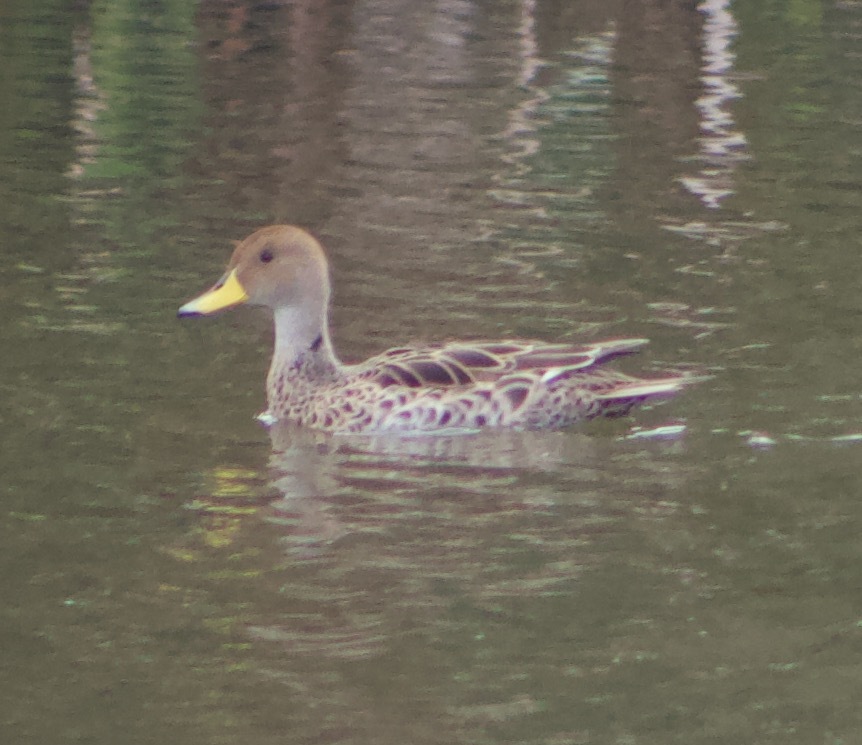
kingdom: Animalia
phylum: Chordata
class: Aves
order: Anseriformes
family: Anatidae
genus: Anas
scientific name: Anas georgica
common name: Yellow-billed pintail
